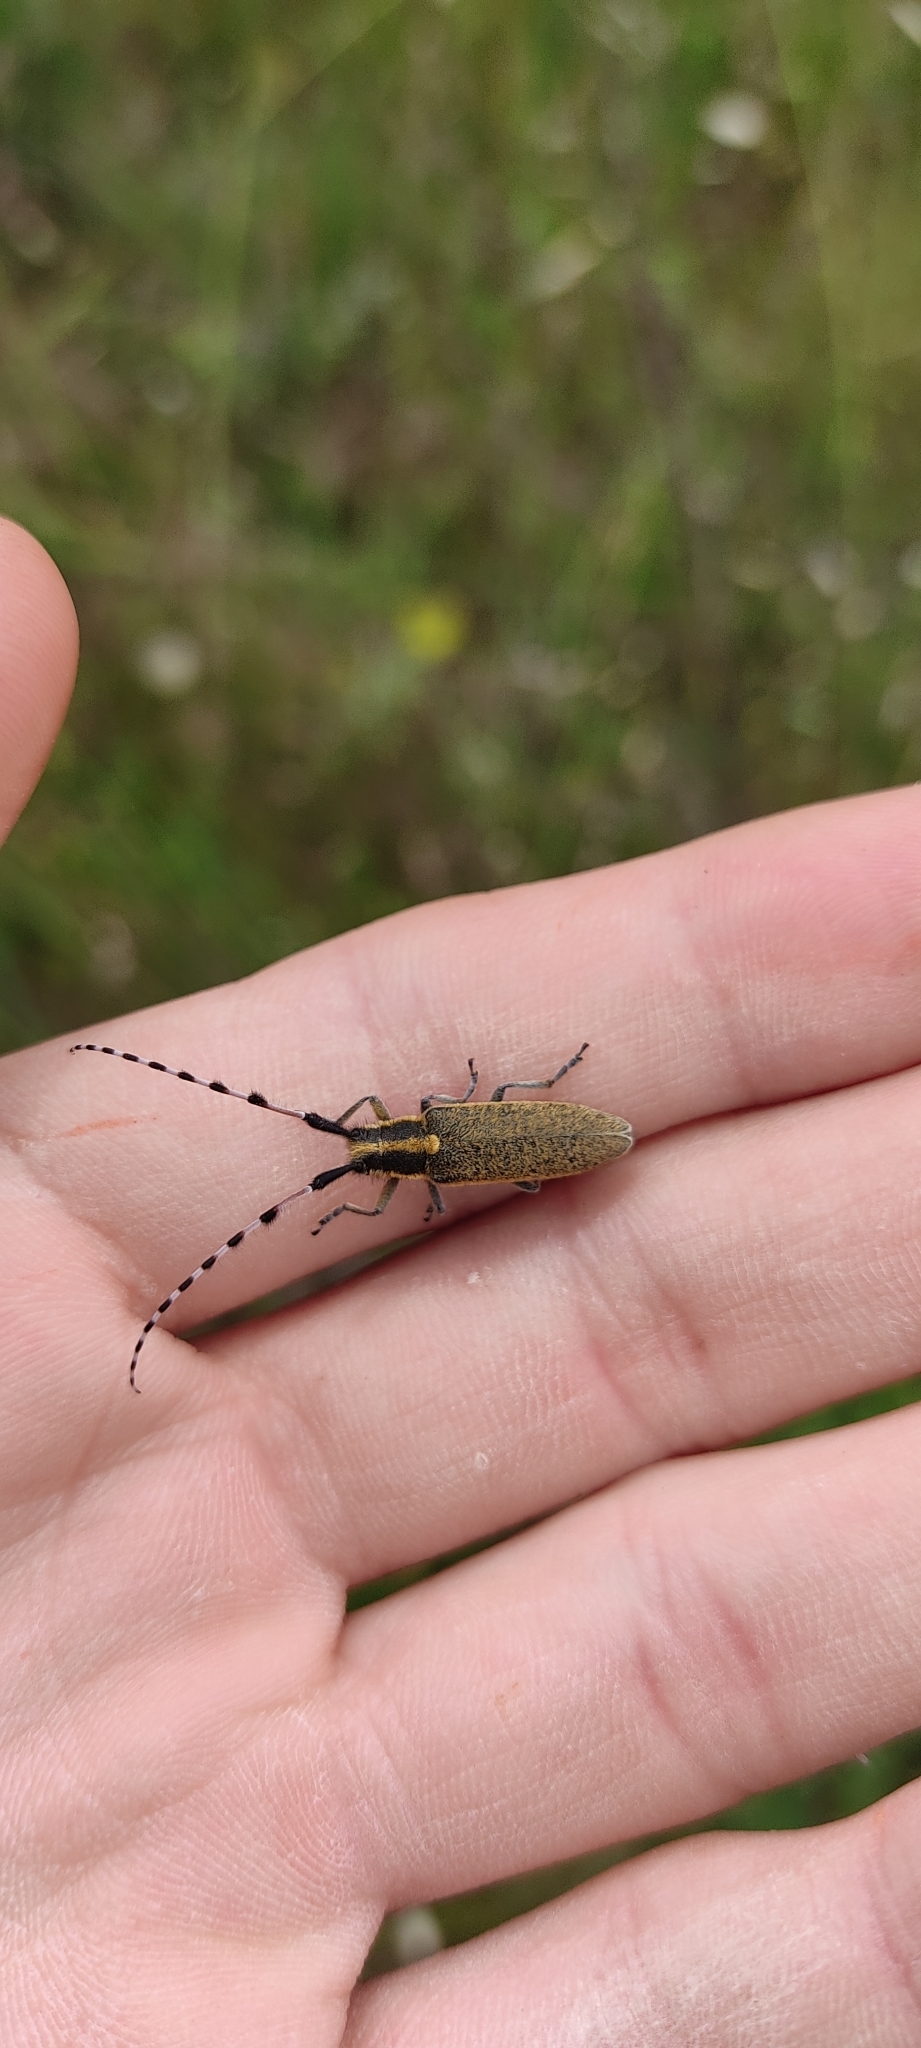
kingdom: Animalia
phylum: Arthropoda
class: Insecta
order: Coleoptera
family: Cerambycidae
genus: Agapanthia
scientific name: Agapanthia dahlii
